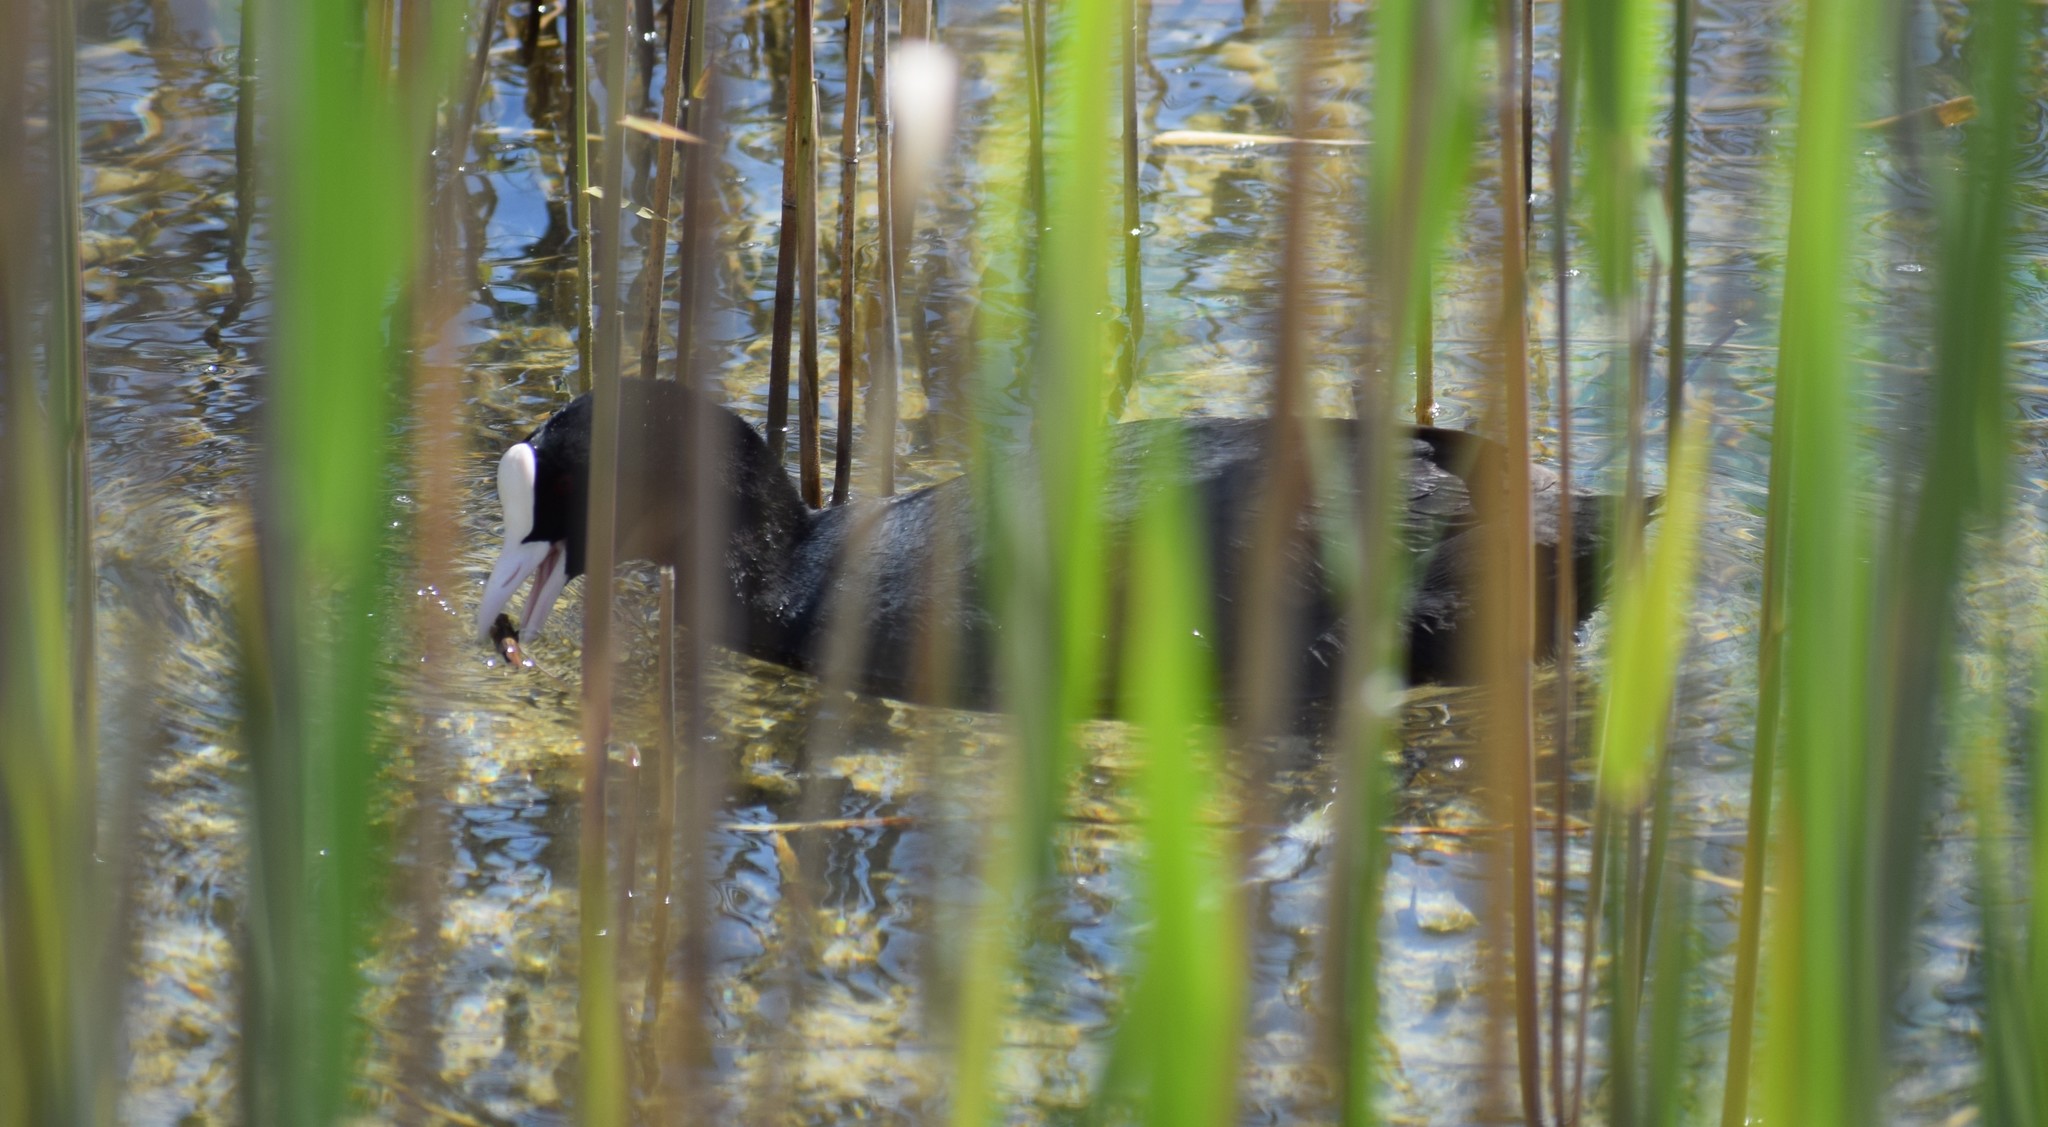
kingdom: Animalia
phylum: Chordata
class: Aves
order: Gruiformes
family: Rallidae
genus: Fulica
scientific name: Fulica atra
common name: Eurasian coot
